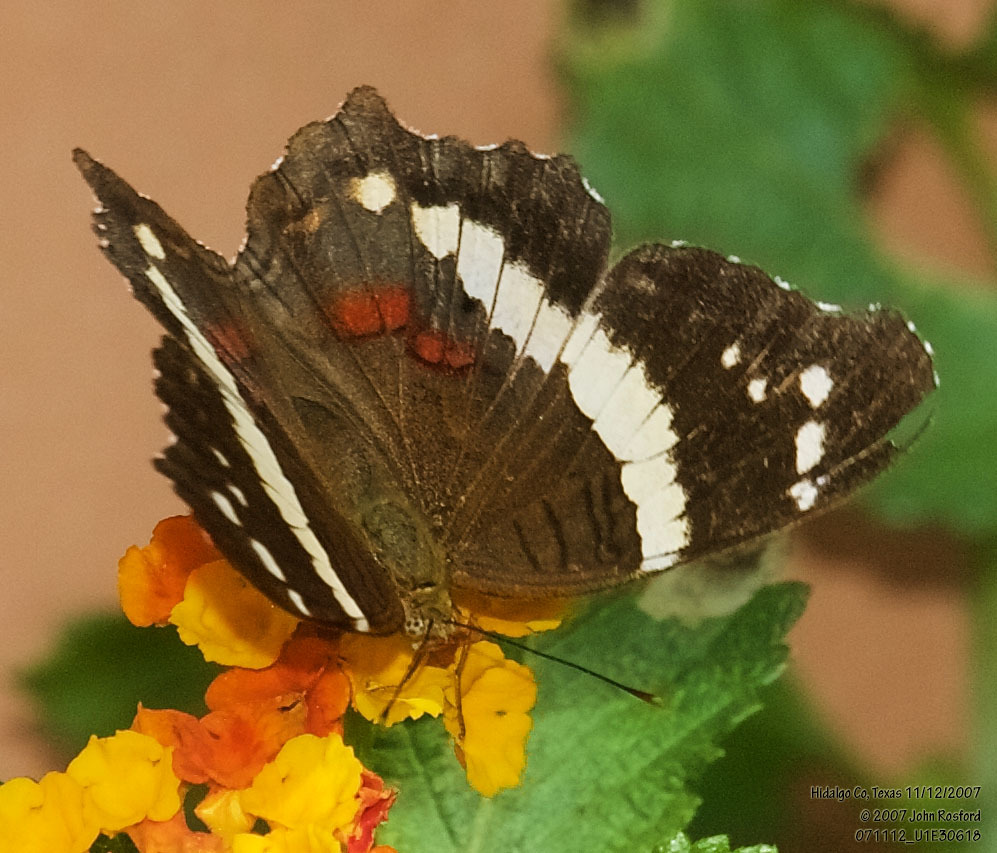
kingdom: Animalia
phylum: Arthropoda
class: Insecta
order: Lepidoptera
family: Nymphalidae
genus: Anartia
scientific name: Anartia fatima
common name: Banded peacock
